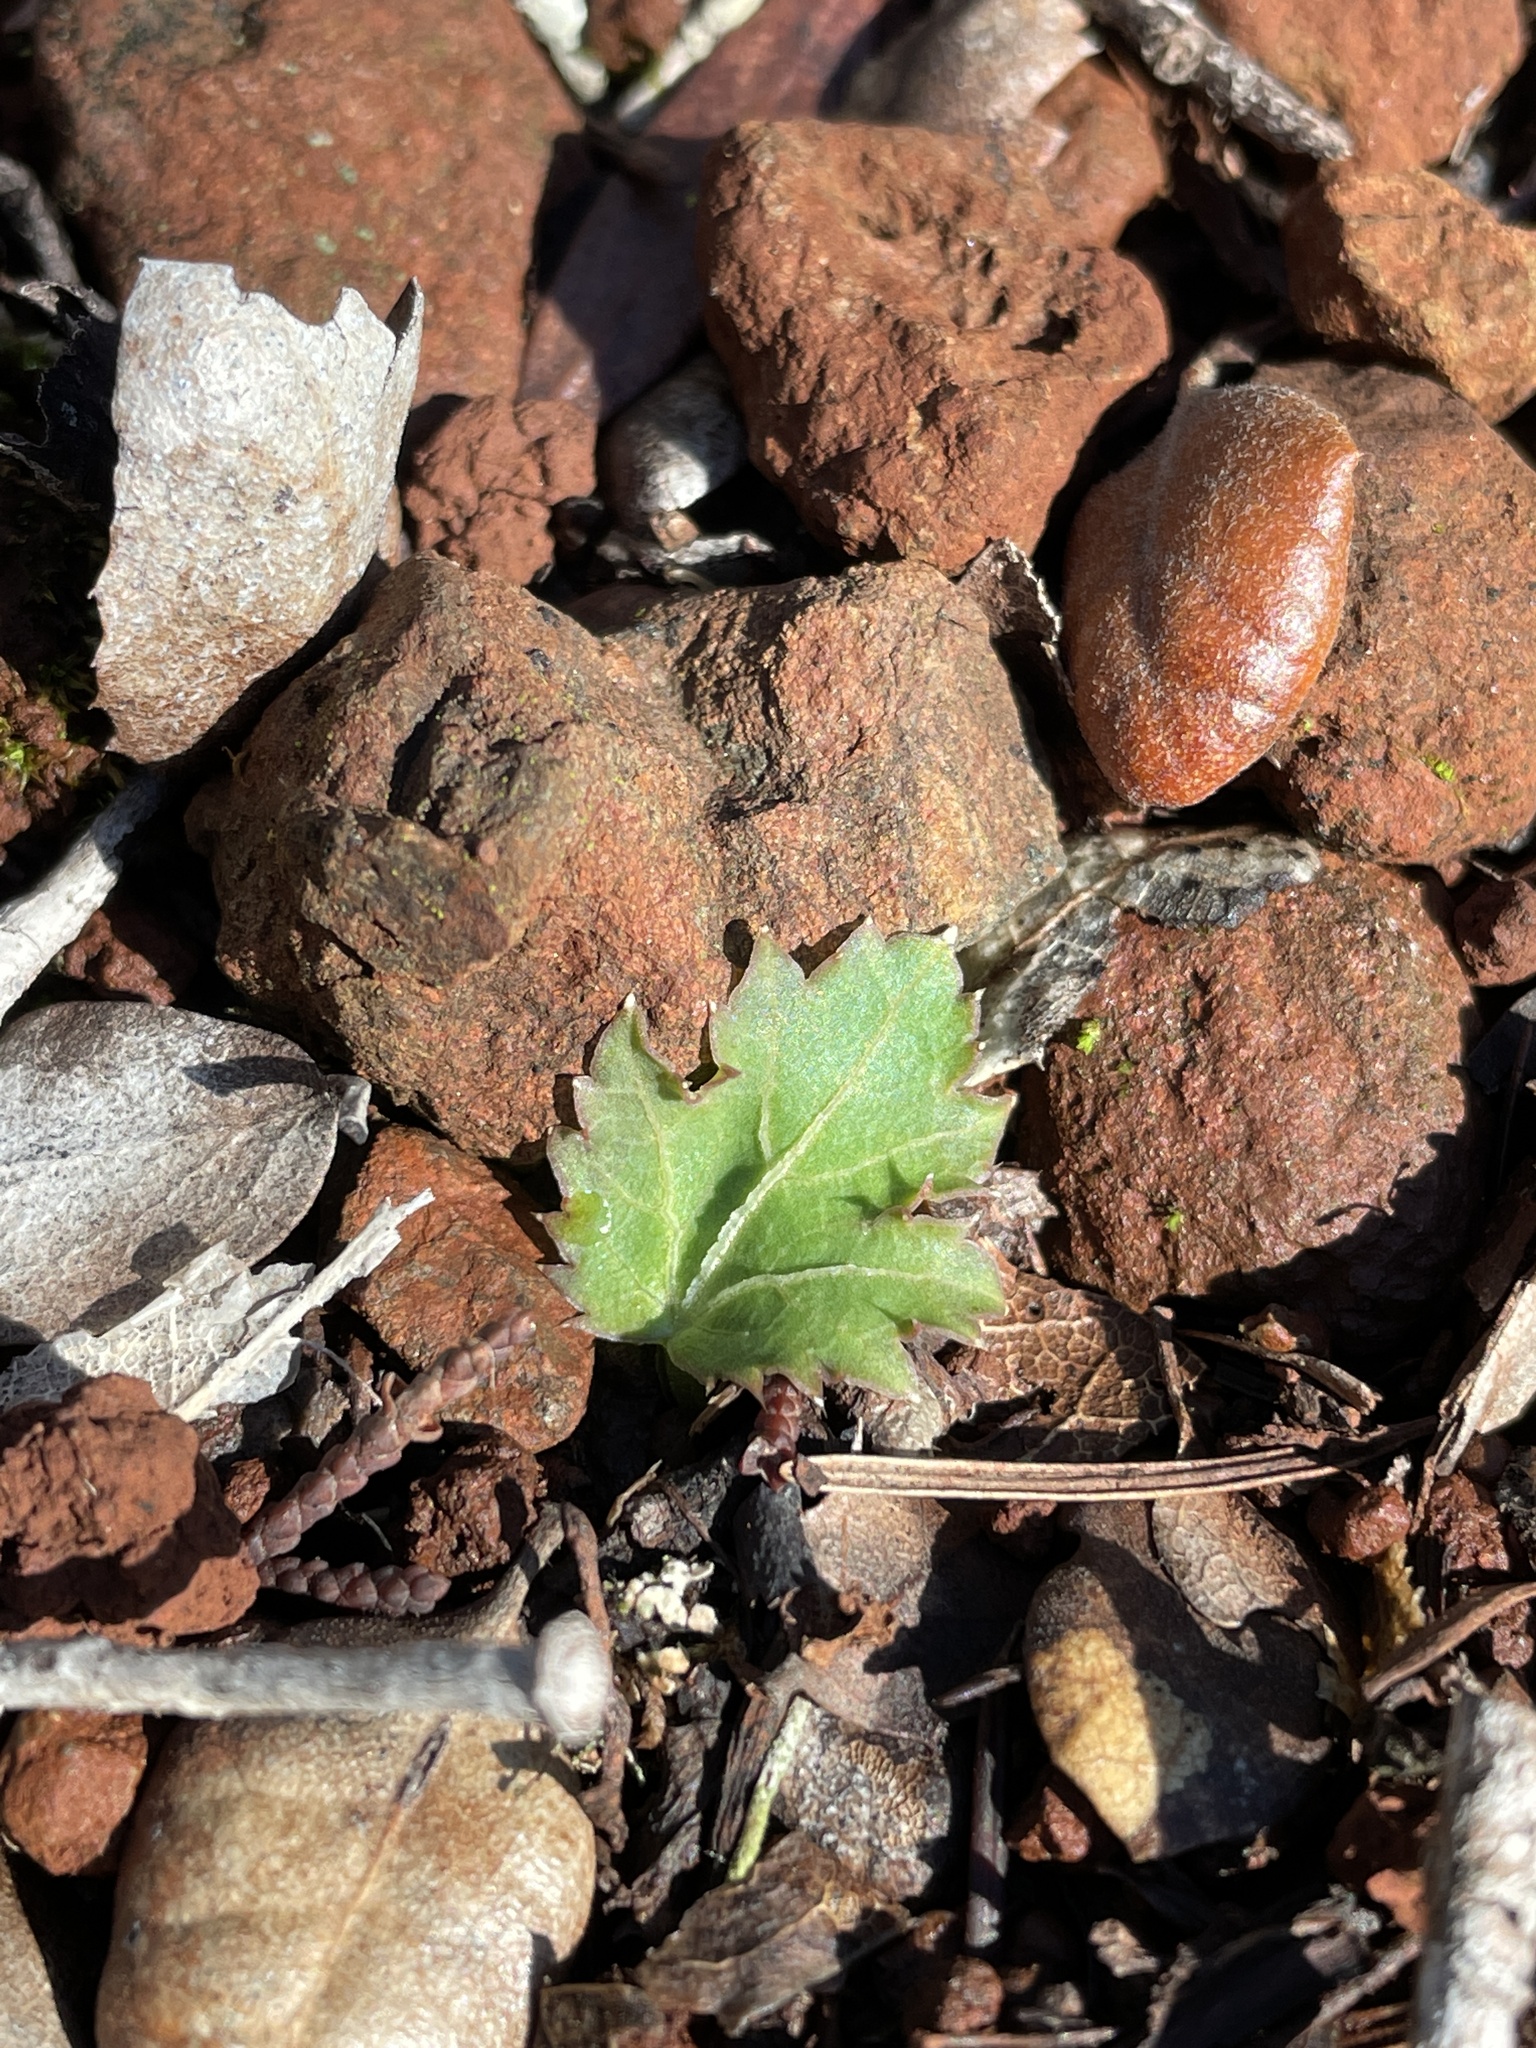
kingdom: Plantae
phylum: Tracheophyta
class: Magnoliopsida
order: Apiales
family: Apiaceae
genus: Sanicula
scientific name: Sanicula laciniata
